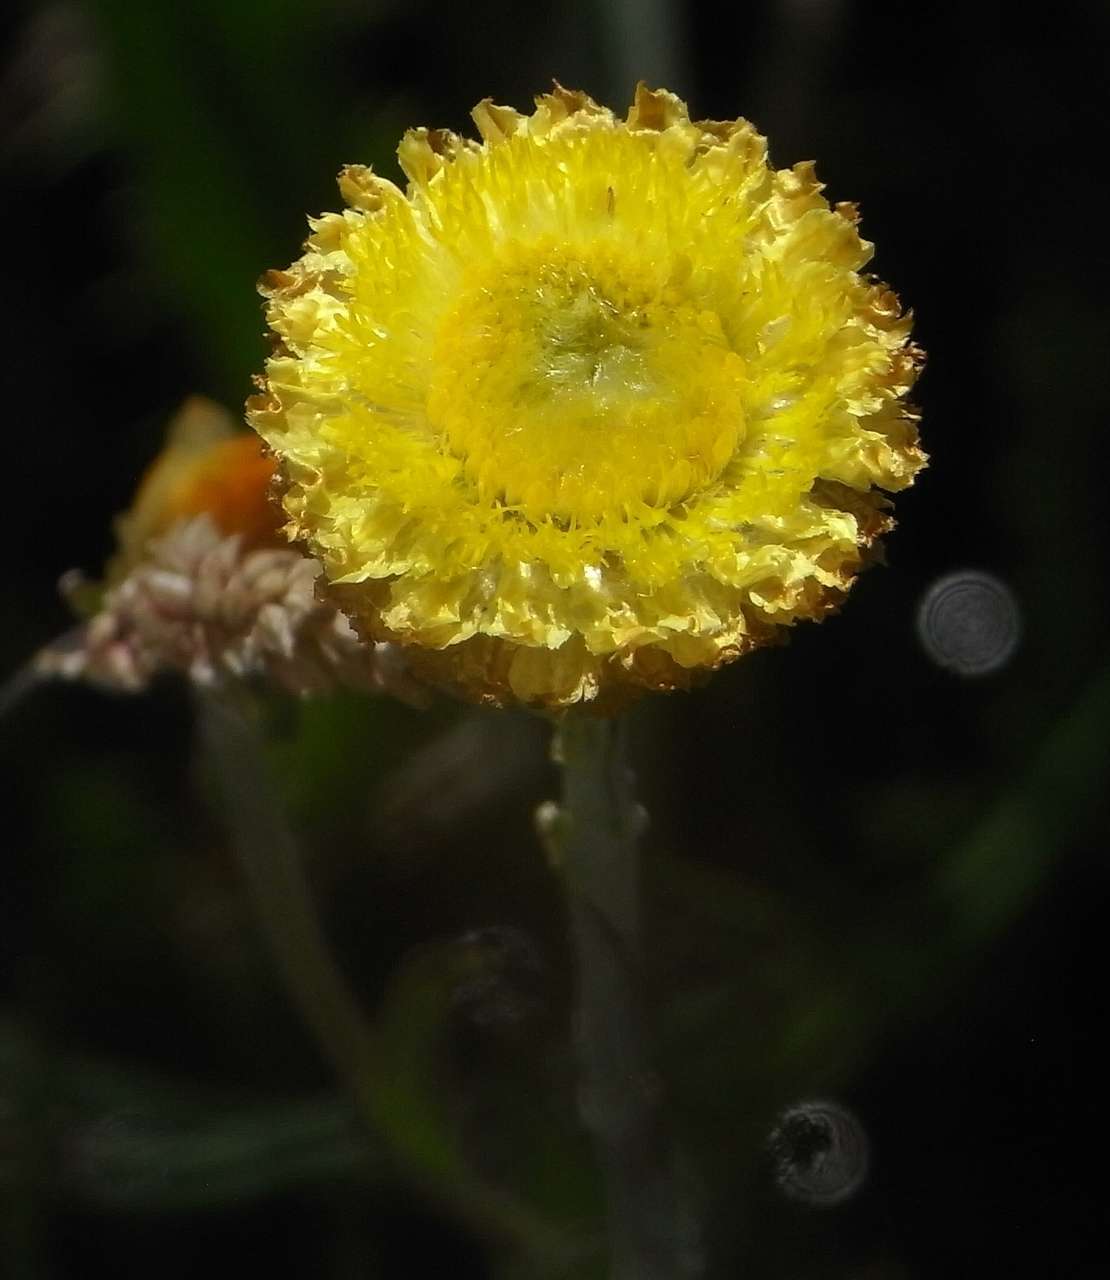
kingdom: Plantae
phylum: Tracheophyta
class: Magnoliopsida
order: Asterales
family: Asteraceae
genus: Coronidium
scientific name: Coronidium gunnianum
